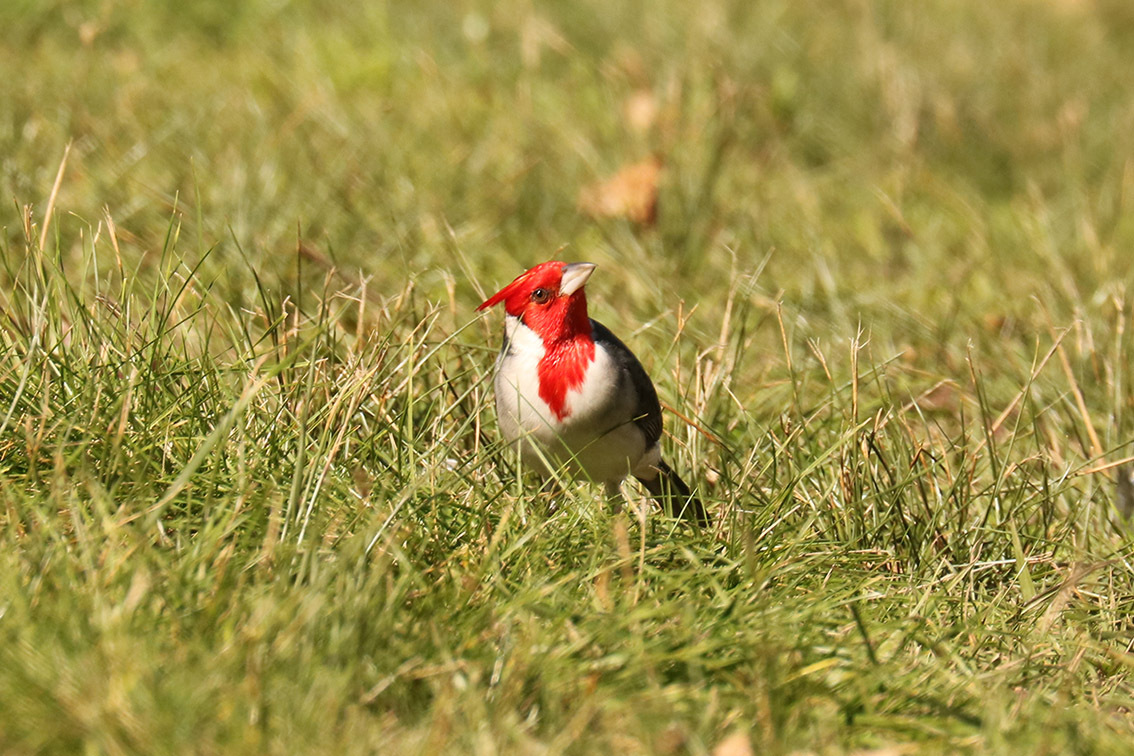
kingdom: Animalia
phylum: Chordata
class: Aves
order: Passeriformes
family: Thraupidae
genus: Paroaria
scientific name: Paroaria coronata
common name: Red-crested cardinal
